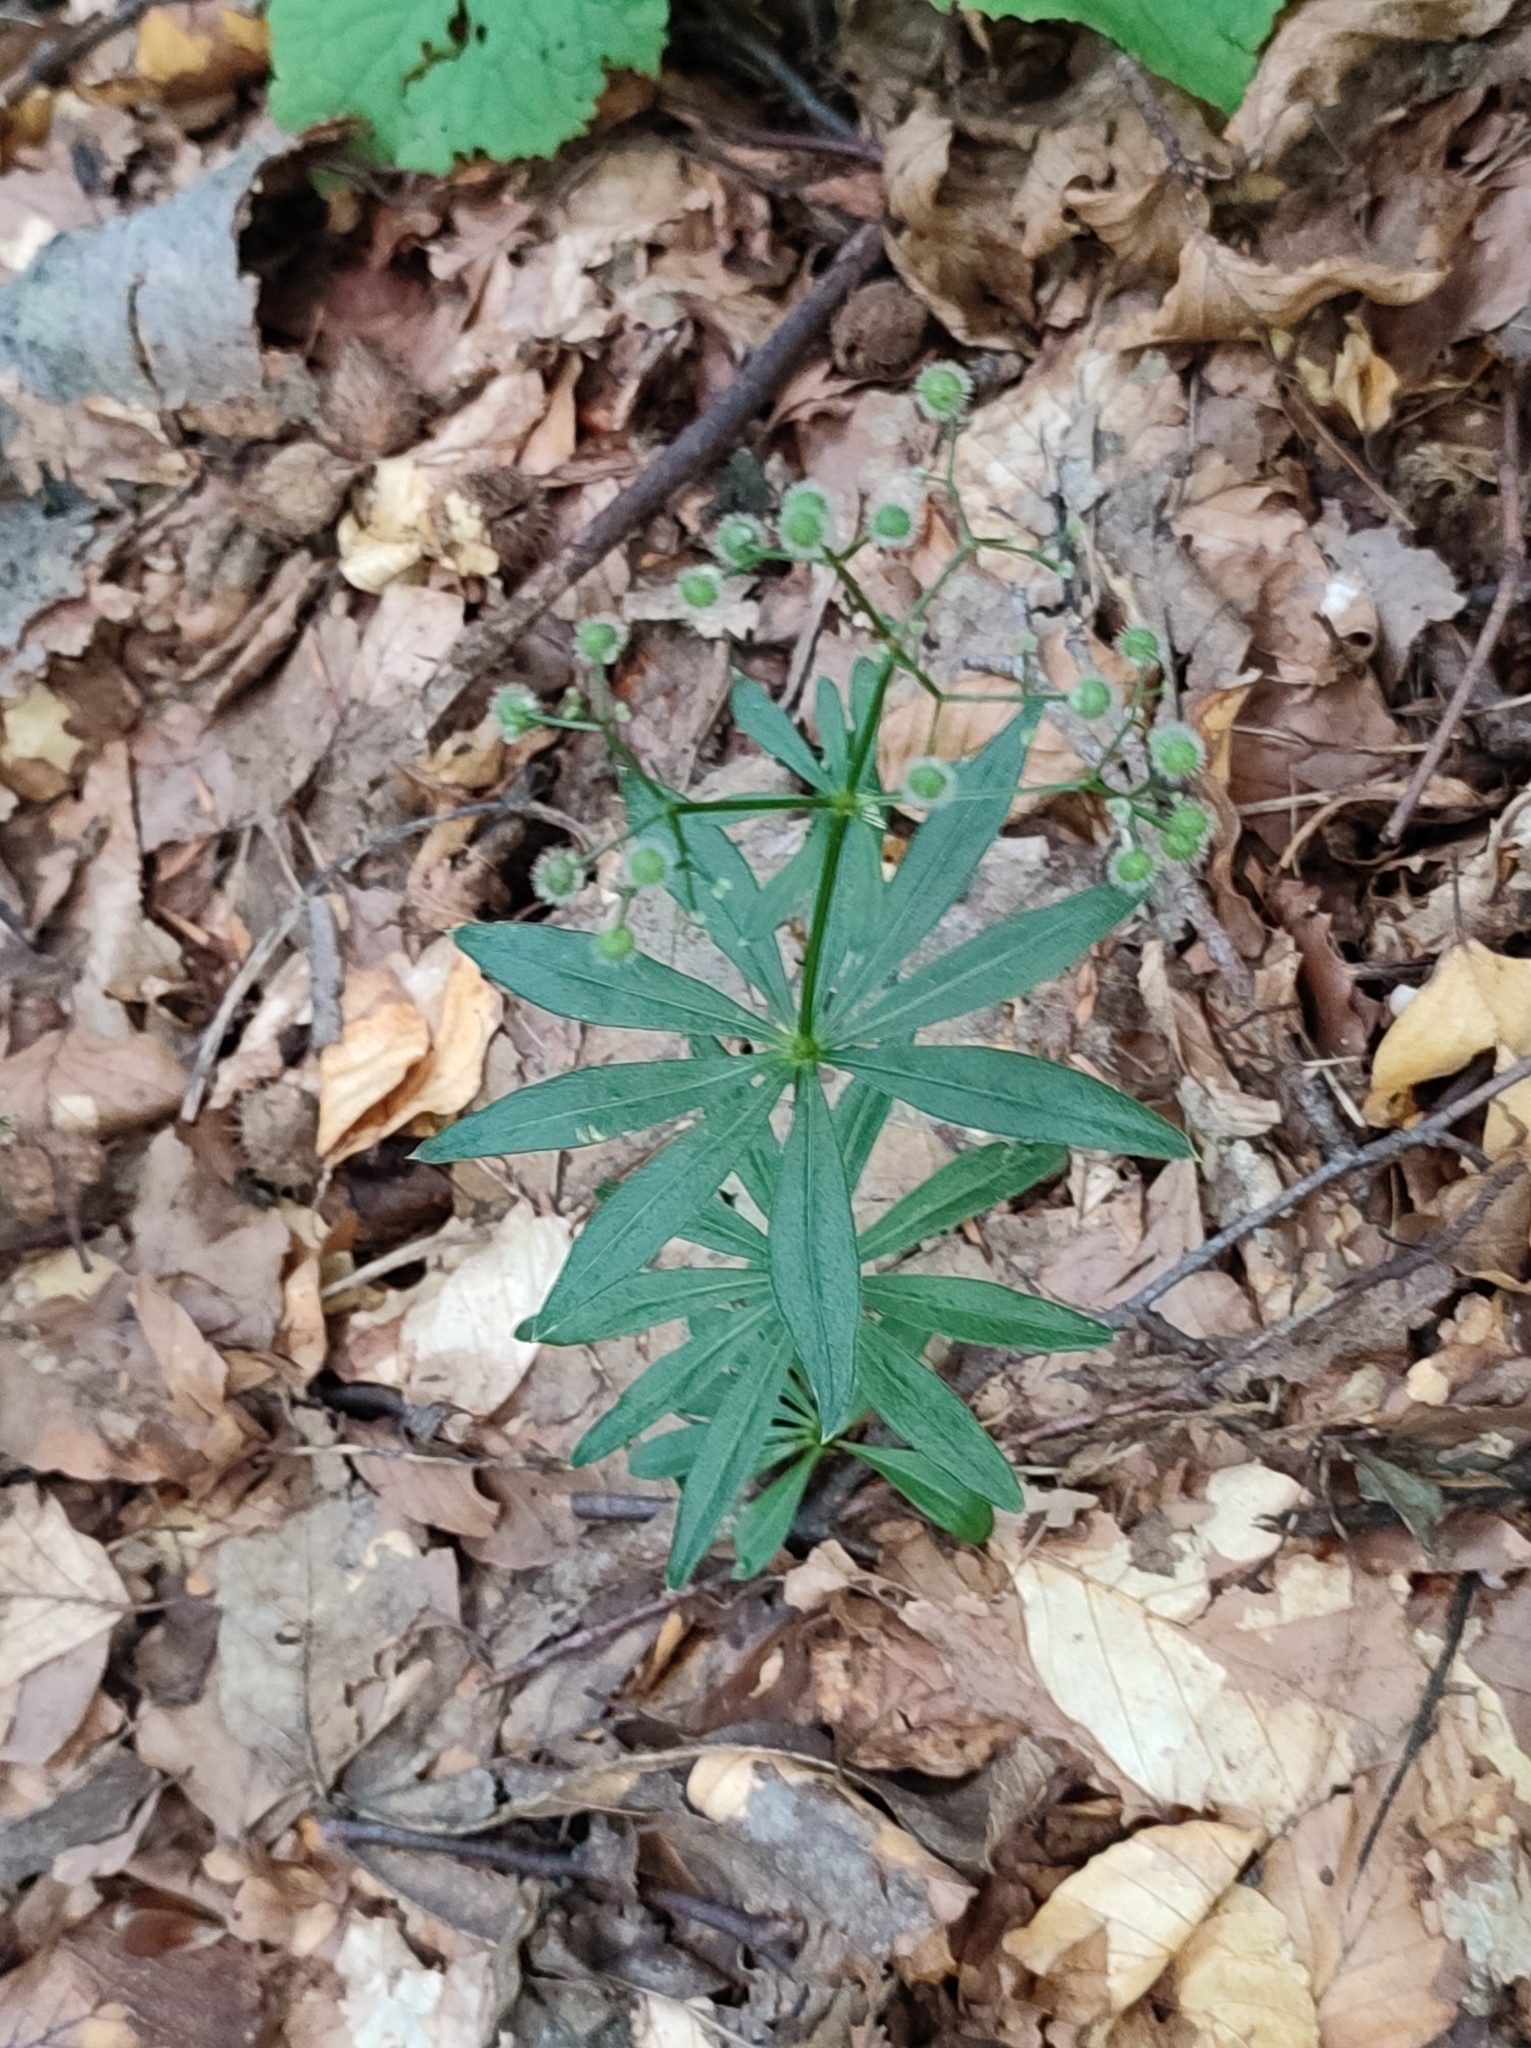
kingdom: Plantae
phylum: Tracheophyta
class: Magnoliopsida
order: Gentianales
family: Rubiaceae
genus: Galium
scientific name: Galium odoratum
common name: Sweet woodruff
